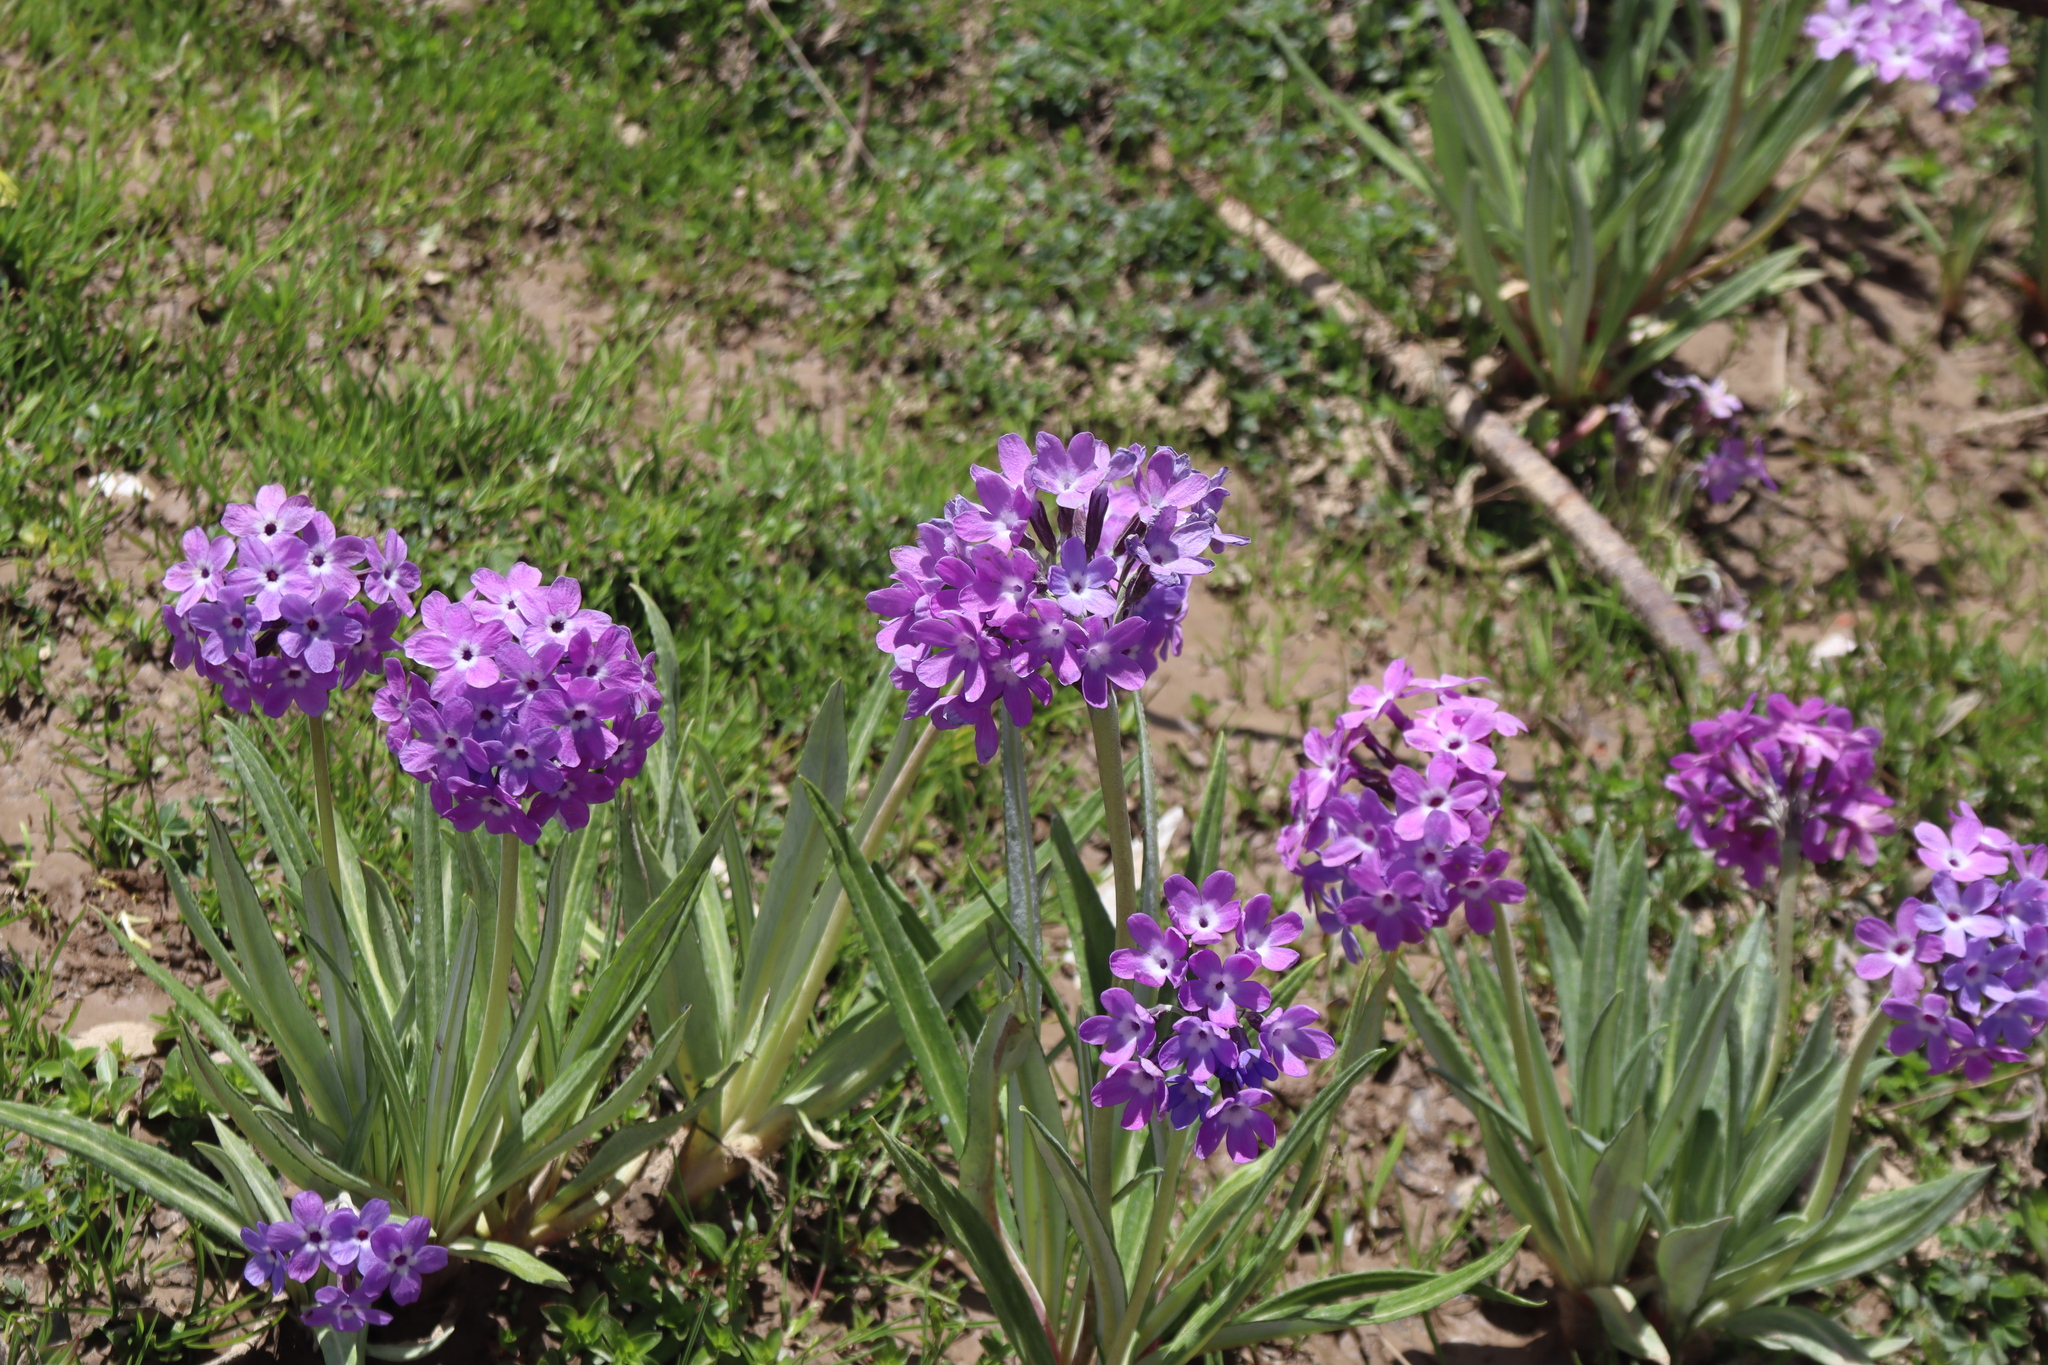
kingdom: Plantae
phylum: Tracheophyta
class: Magnoliopsida
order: Ericales
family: Primulaceae
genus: Primula
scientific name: Primula macrophylla
